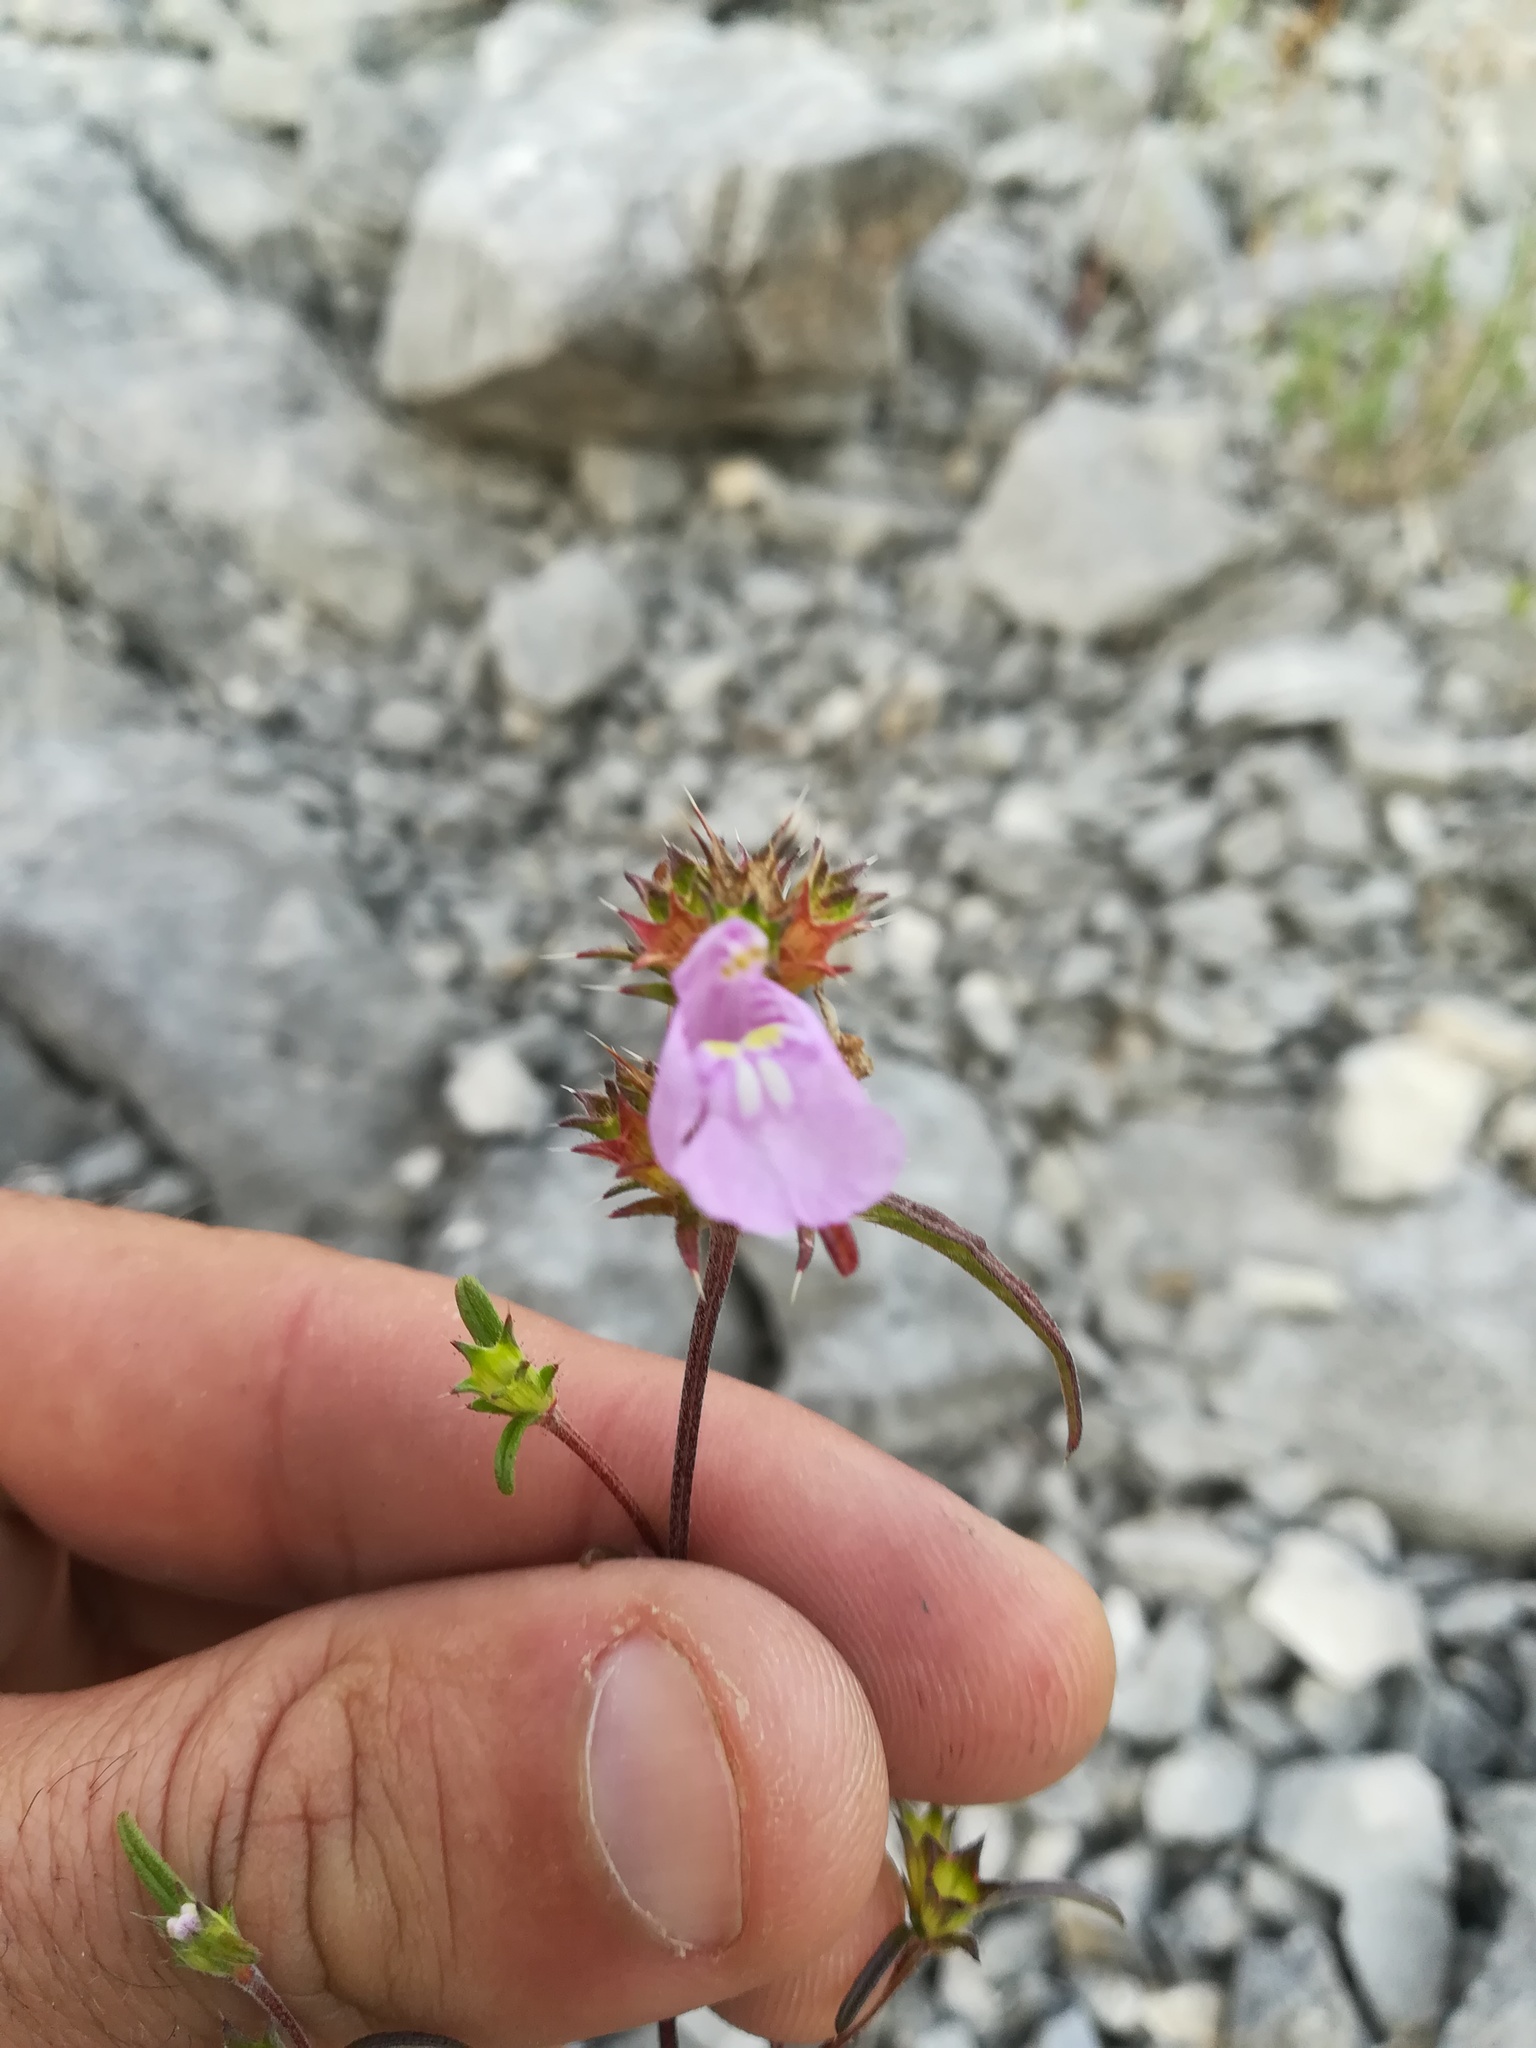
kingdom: Plantae
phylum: Tracheophyta
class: Magnoliopsida
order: Lamiales
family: Lamiaceae
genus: Galeopsis
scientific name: Galeopsis angustifolia
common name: Red hemp-nettle
